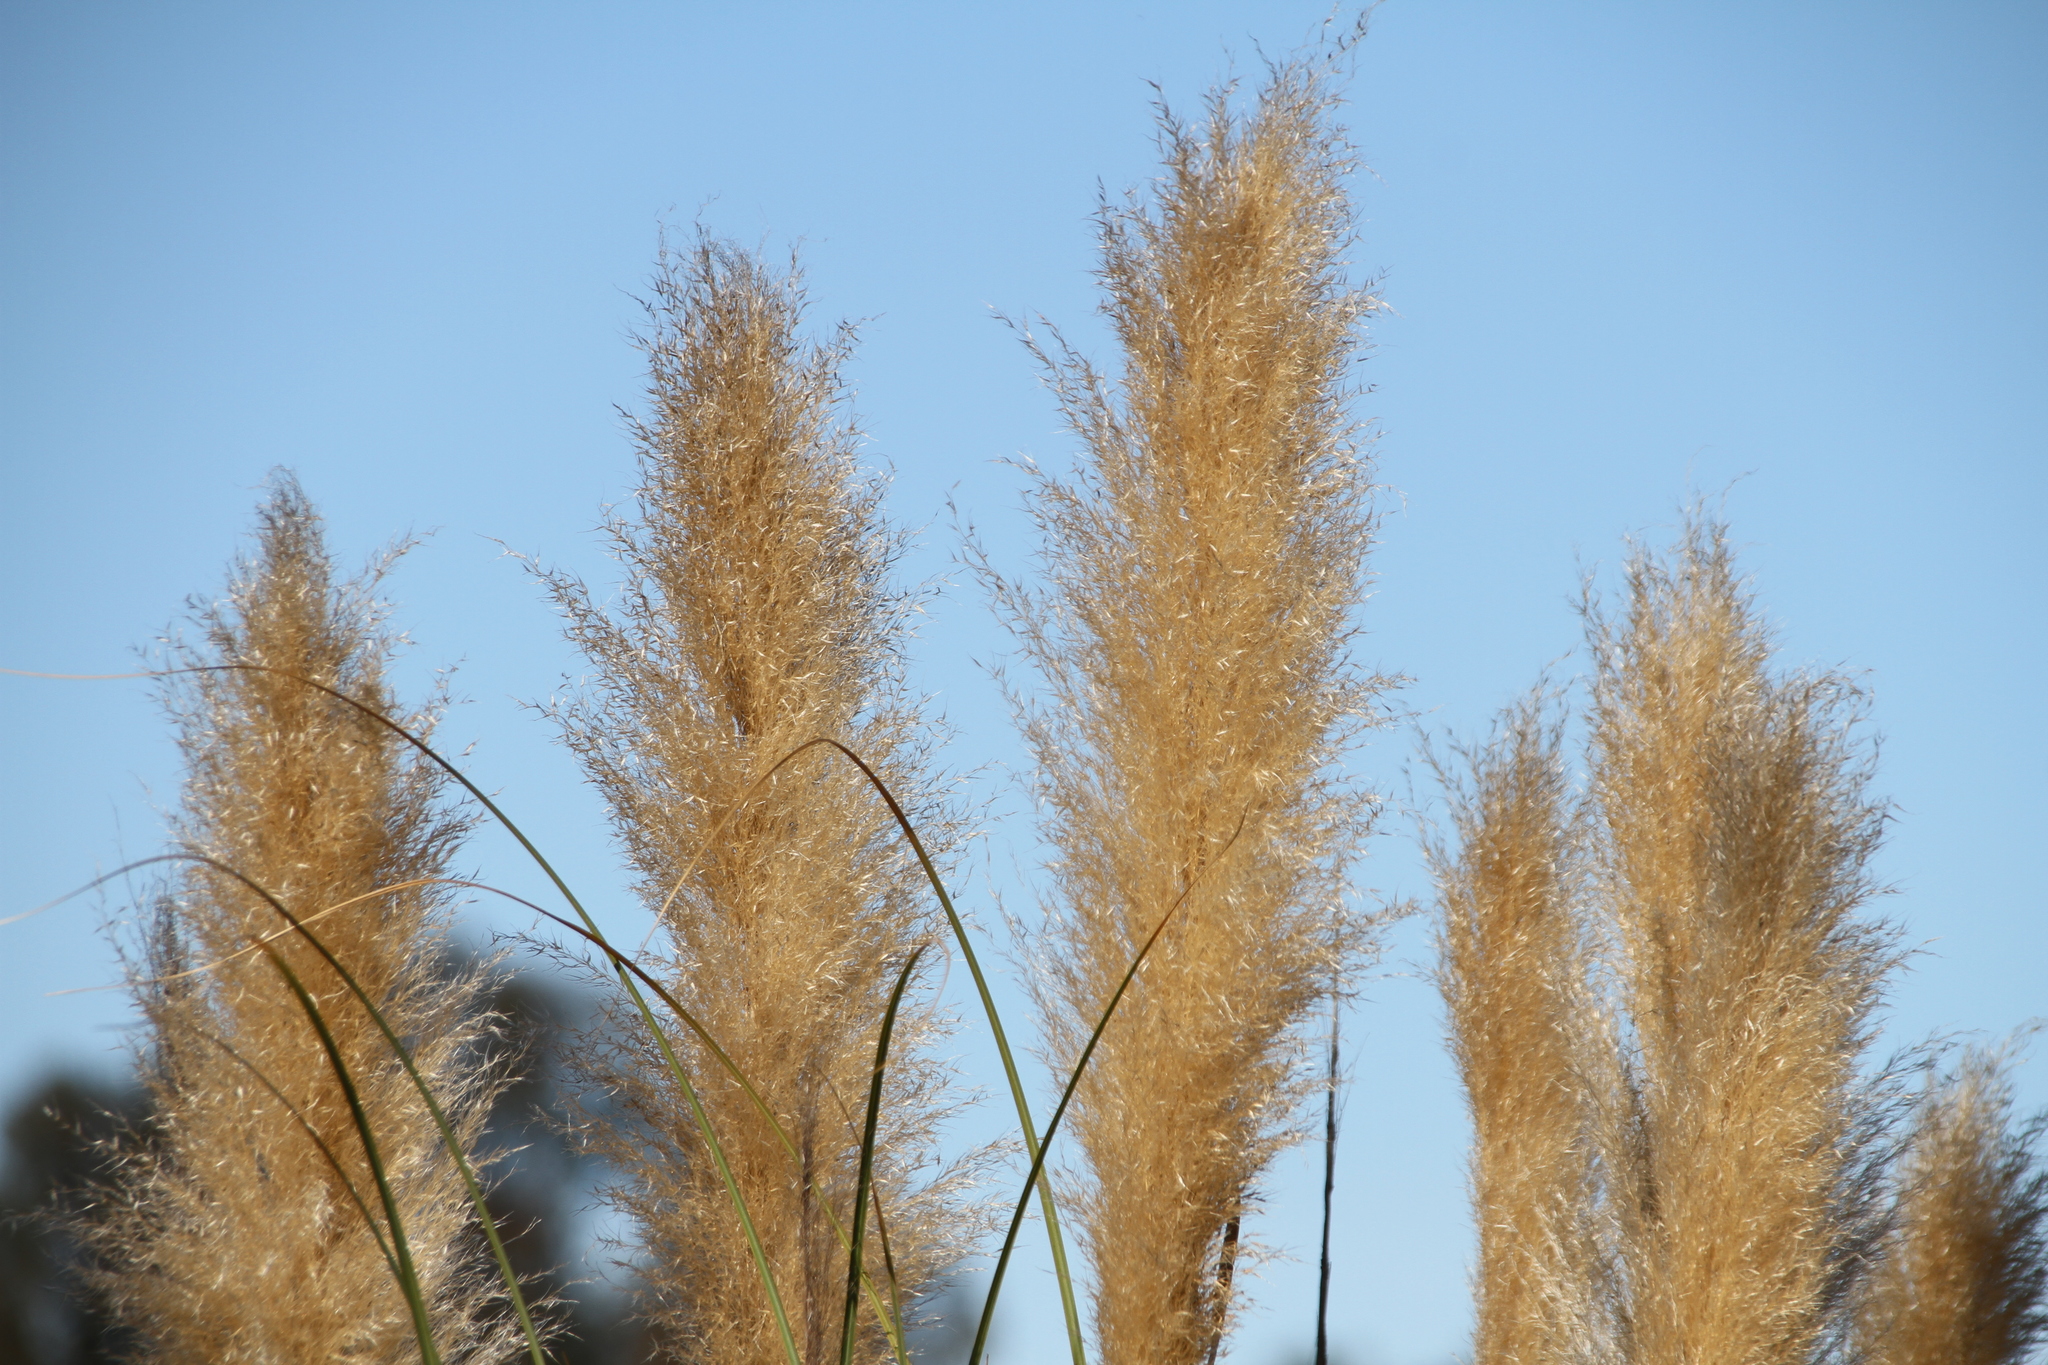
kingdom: Plantae
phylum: Tracheophyta
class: Liliopsida
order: Poales
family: Poaceae
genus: Cortaderia
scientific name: Cortaderia selloana
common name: Uruguayan pampas grass
